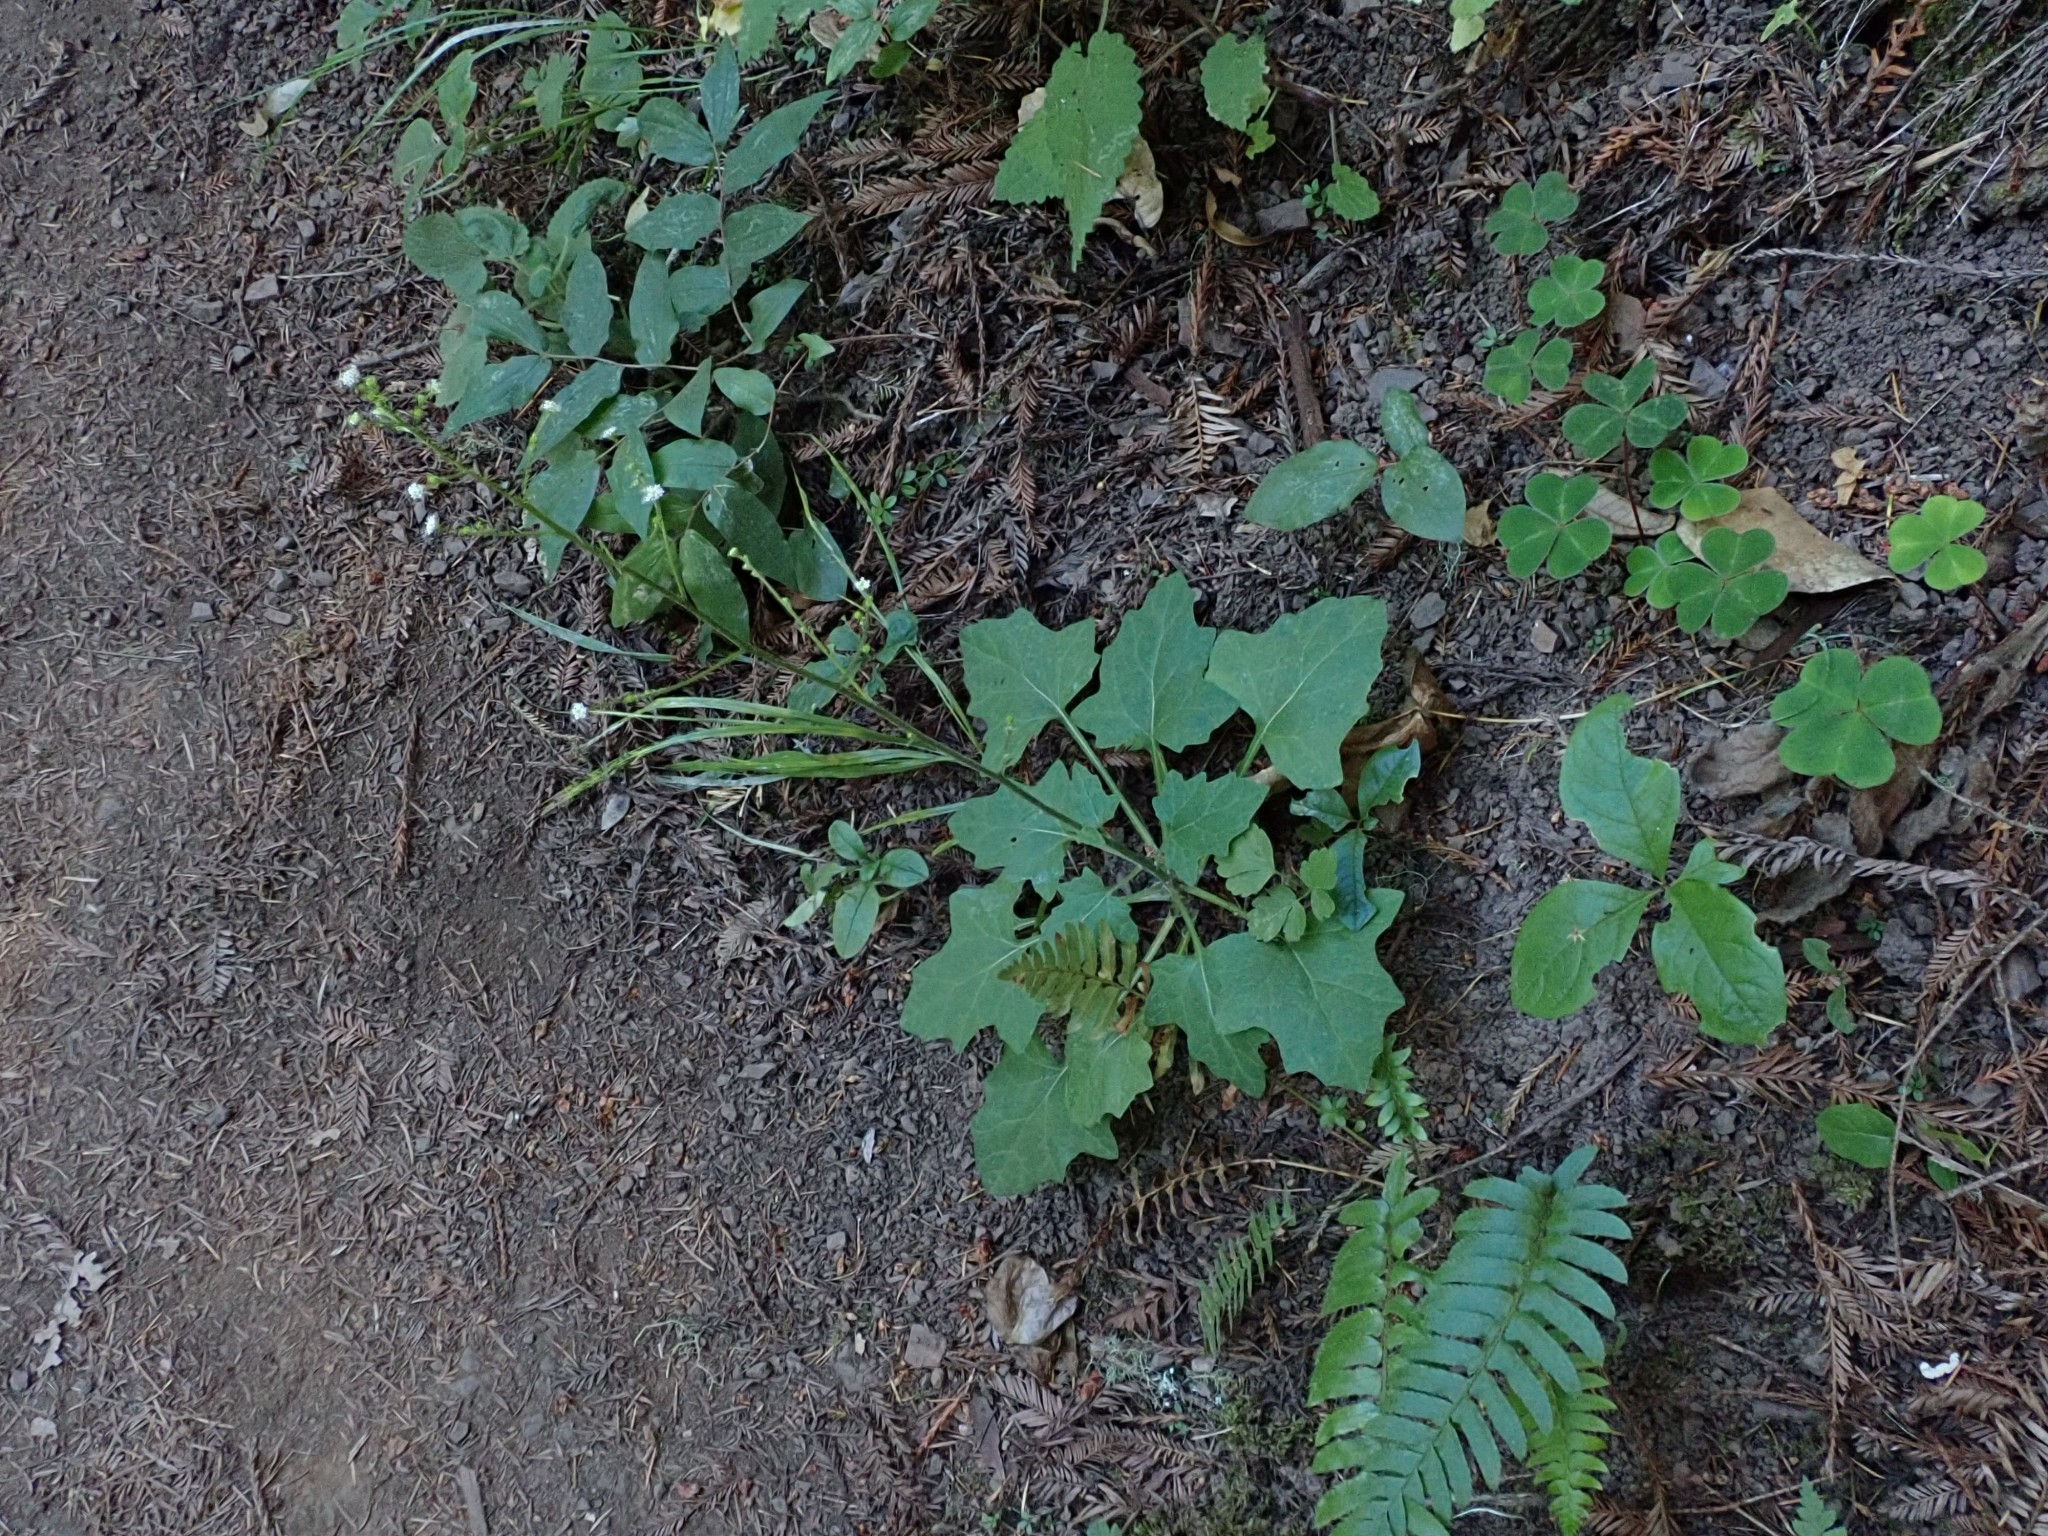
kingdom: Plantae
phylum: Tracheophyta
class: Magnoliopsida
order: Asterales
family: Asteraceae
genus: Adenocaulon
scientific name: Adenocaulon bicolor
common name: Trailplant
